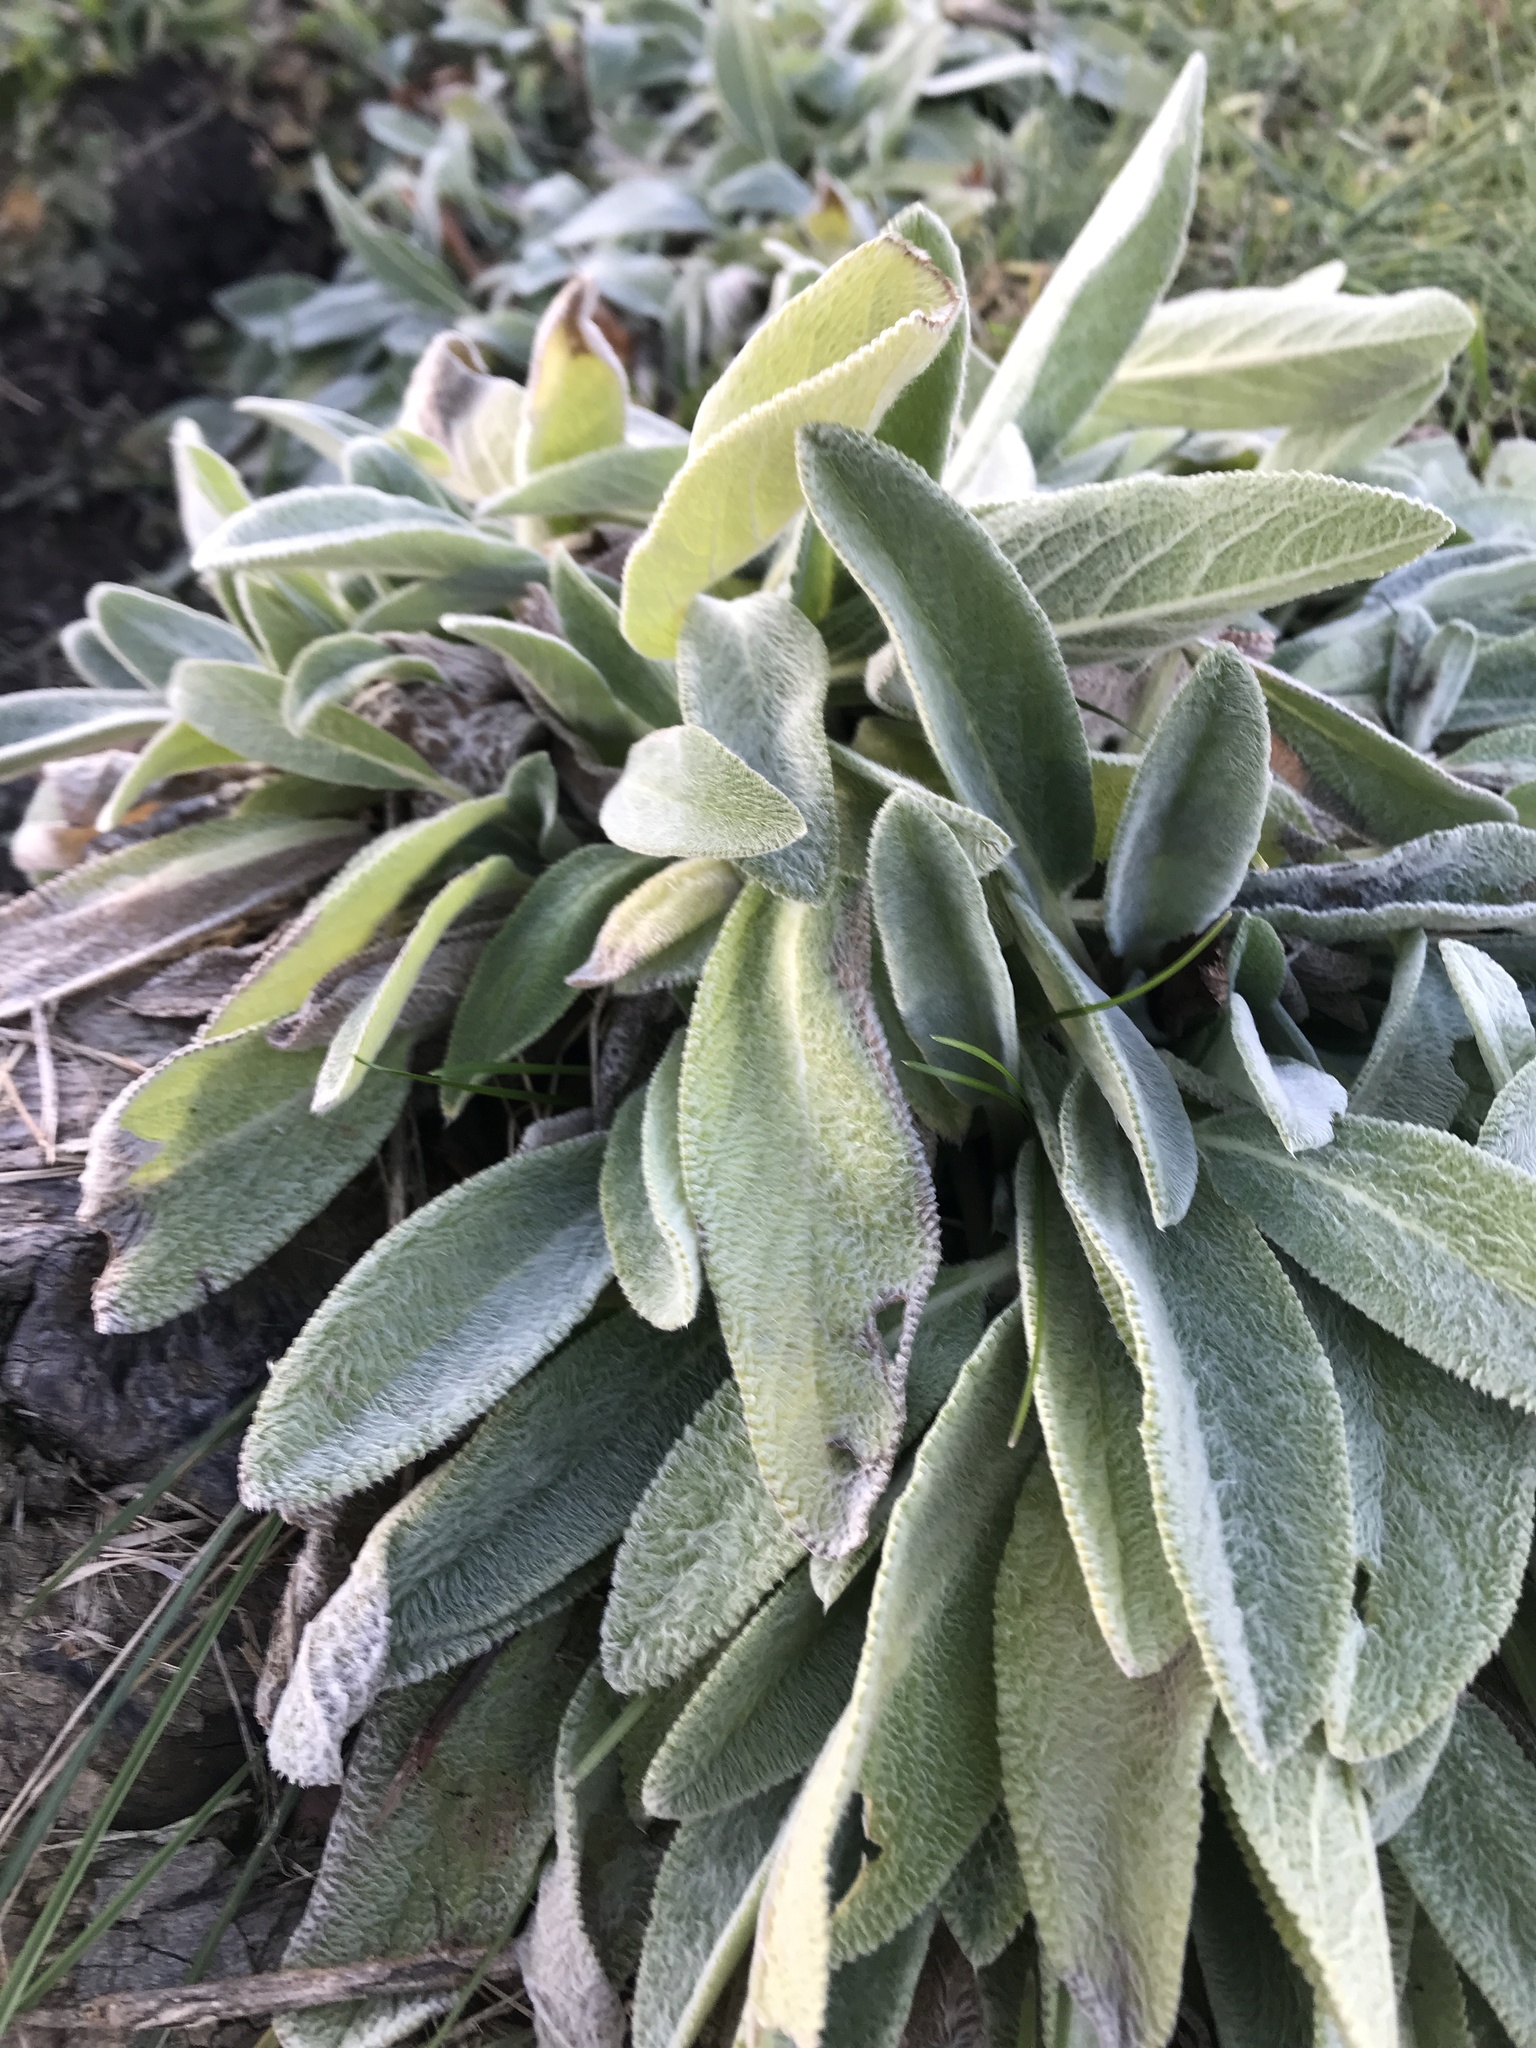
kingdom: Plantae
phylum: Tracheophyta
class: Magnoliopsida
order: Lamiales
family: Lamiaceae
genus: Stachys
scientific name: Stachys byzantina
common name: Lamb's-ear
